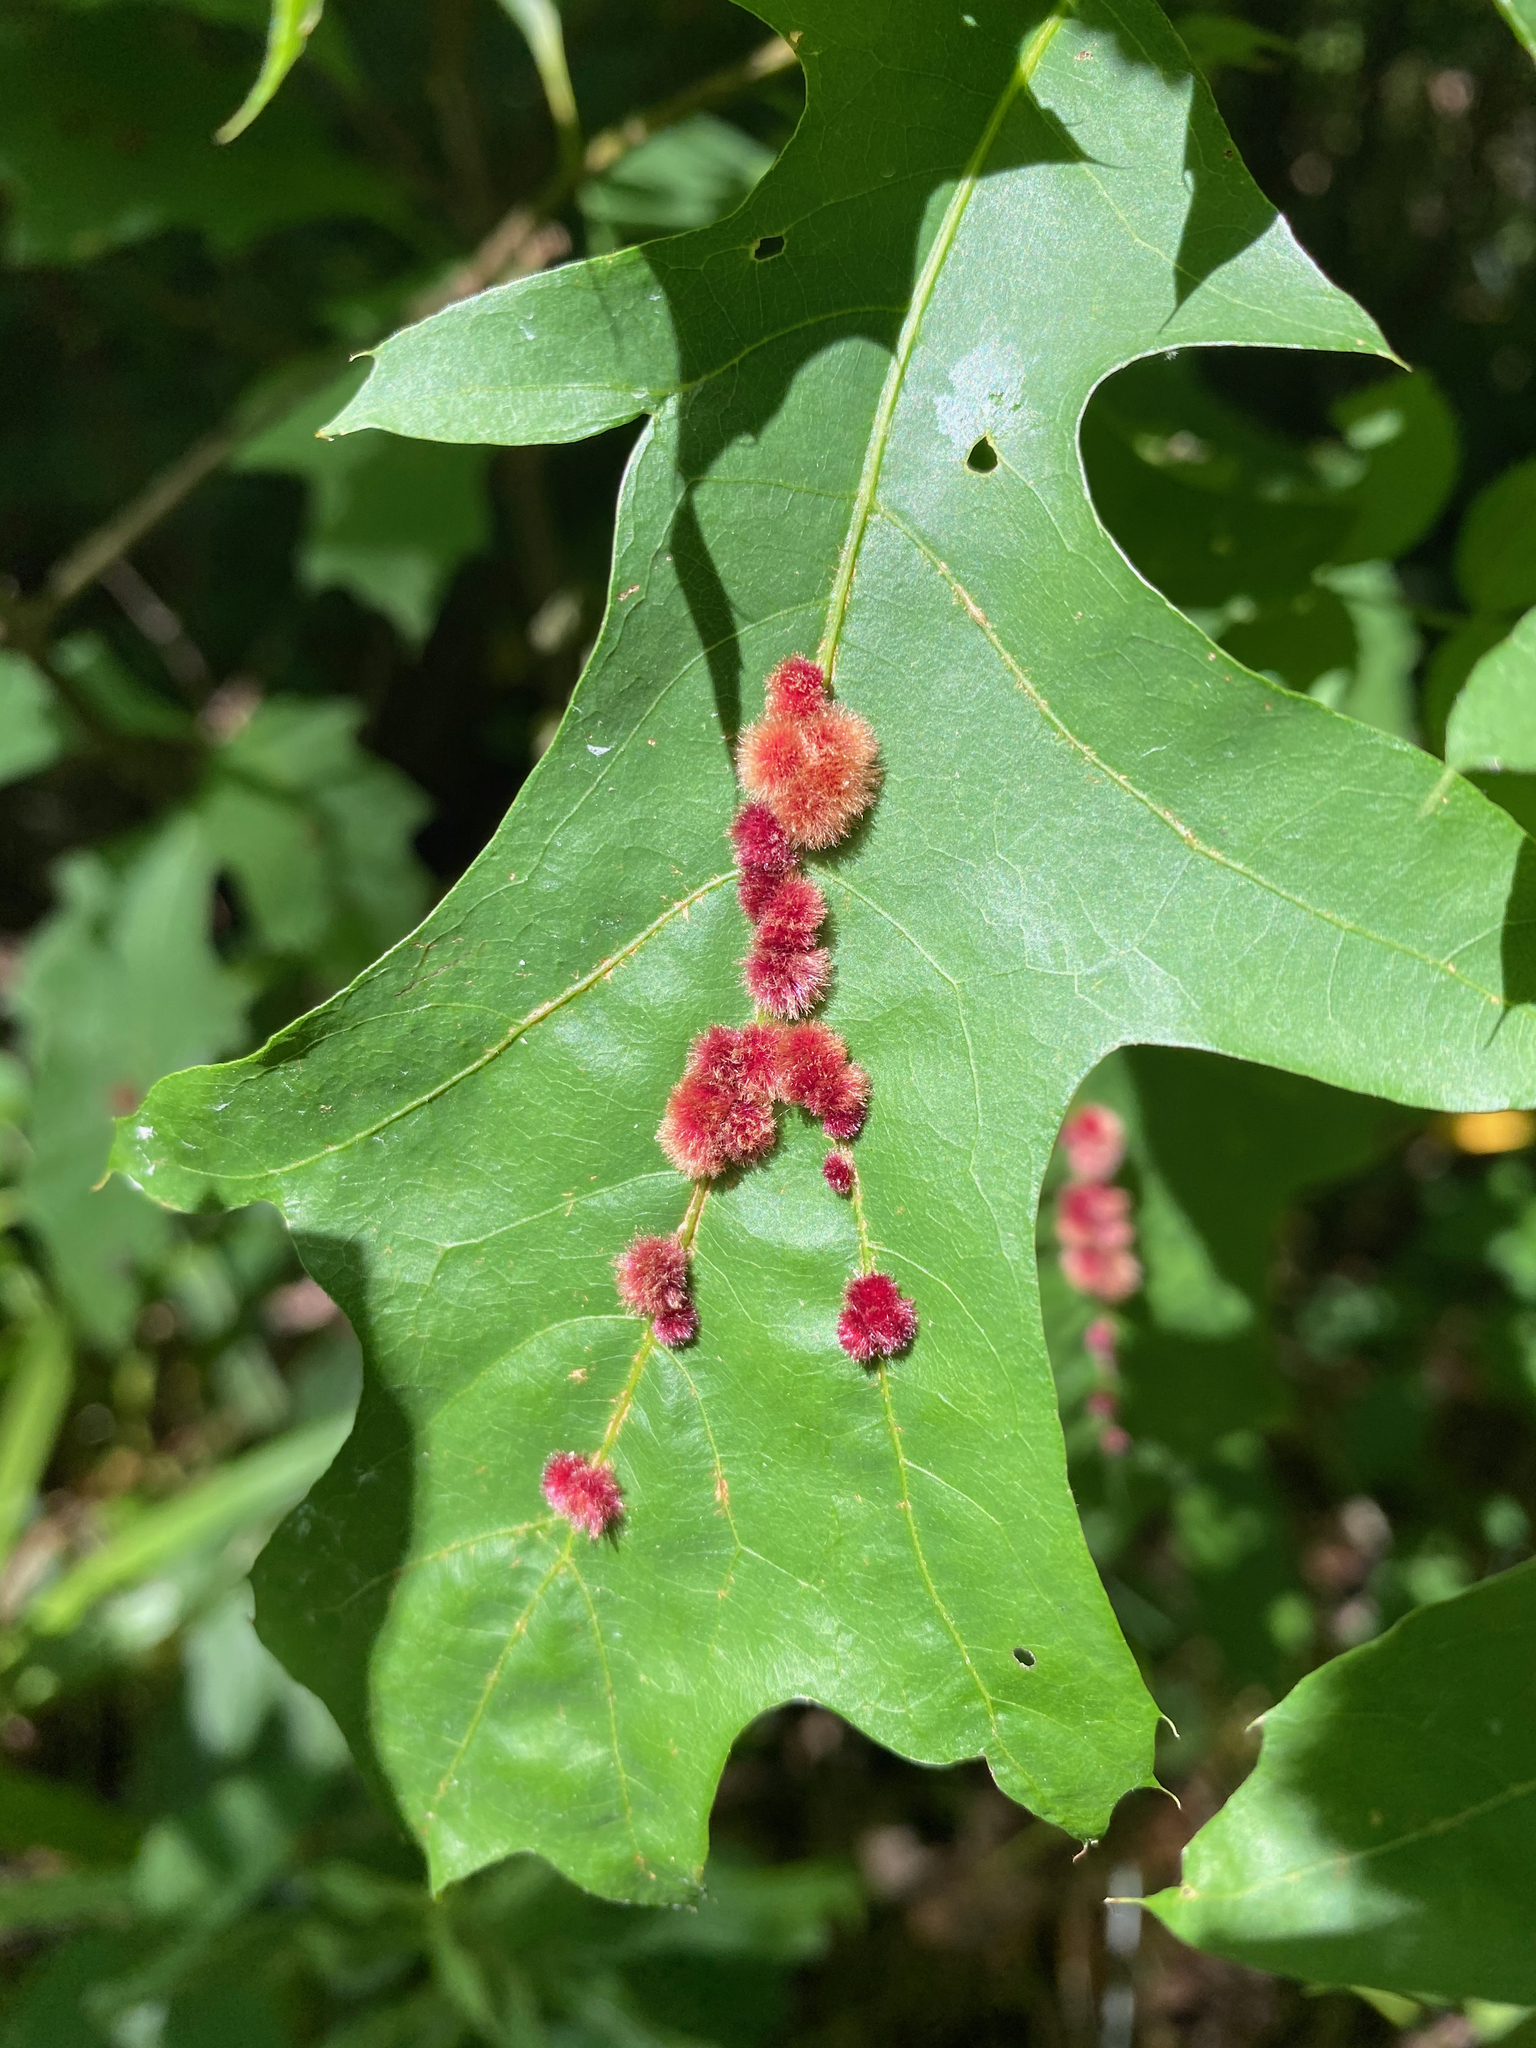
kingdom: Animalia
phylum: Arthropoda
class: Insecta
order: Hymenoptera
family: Cynipidae
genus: Callirhytis
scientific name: Callirhytis
